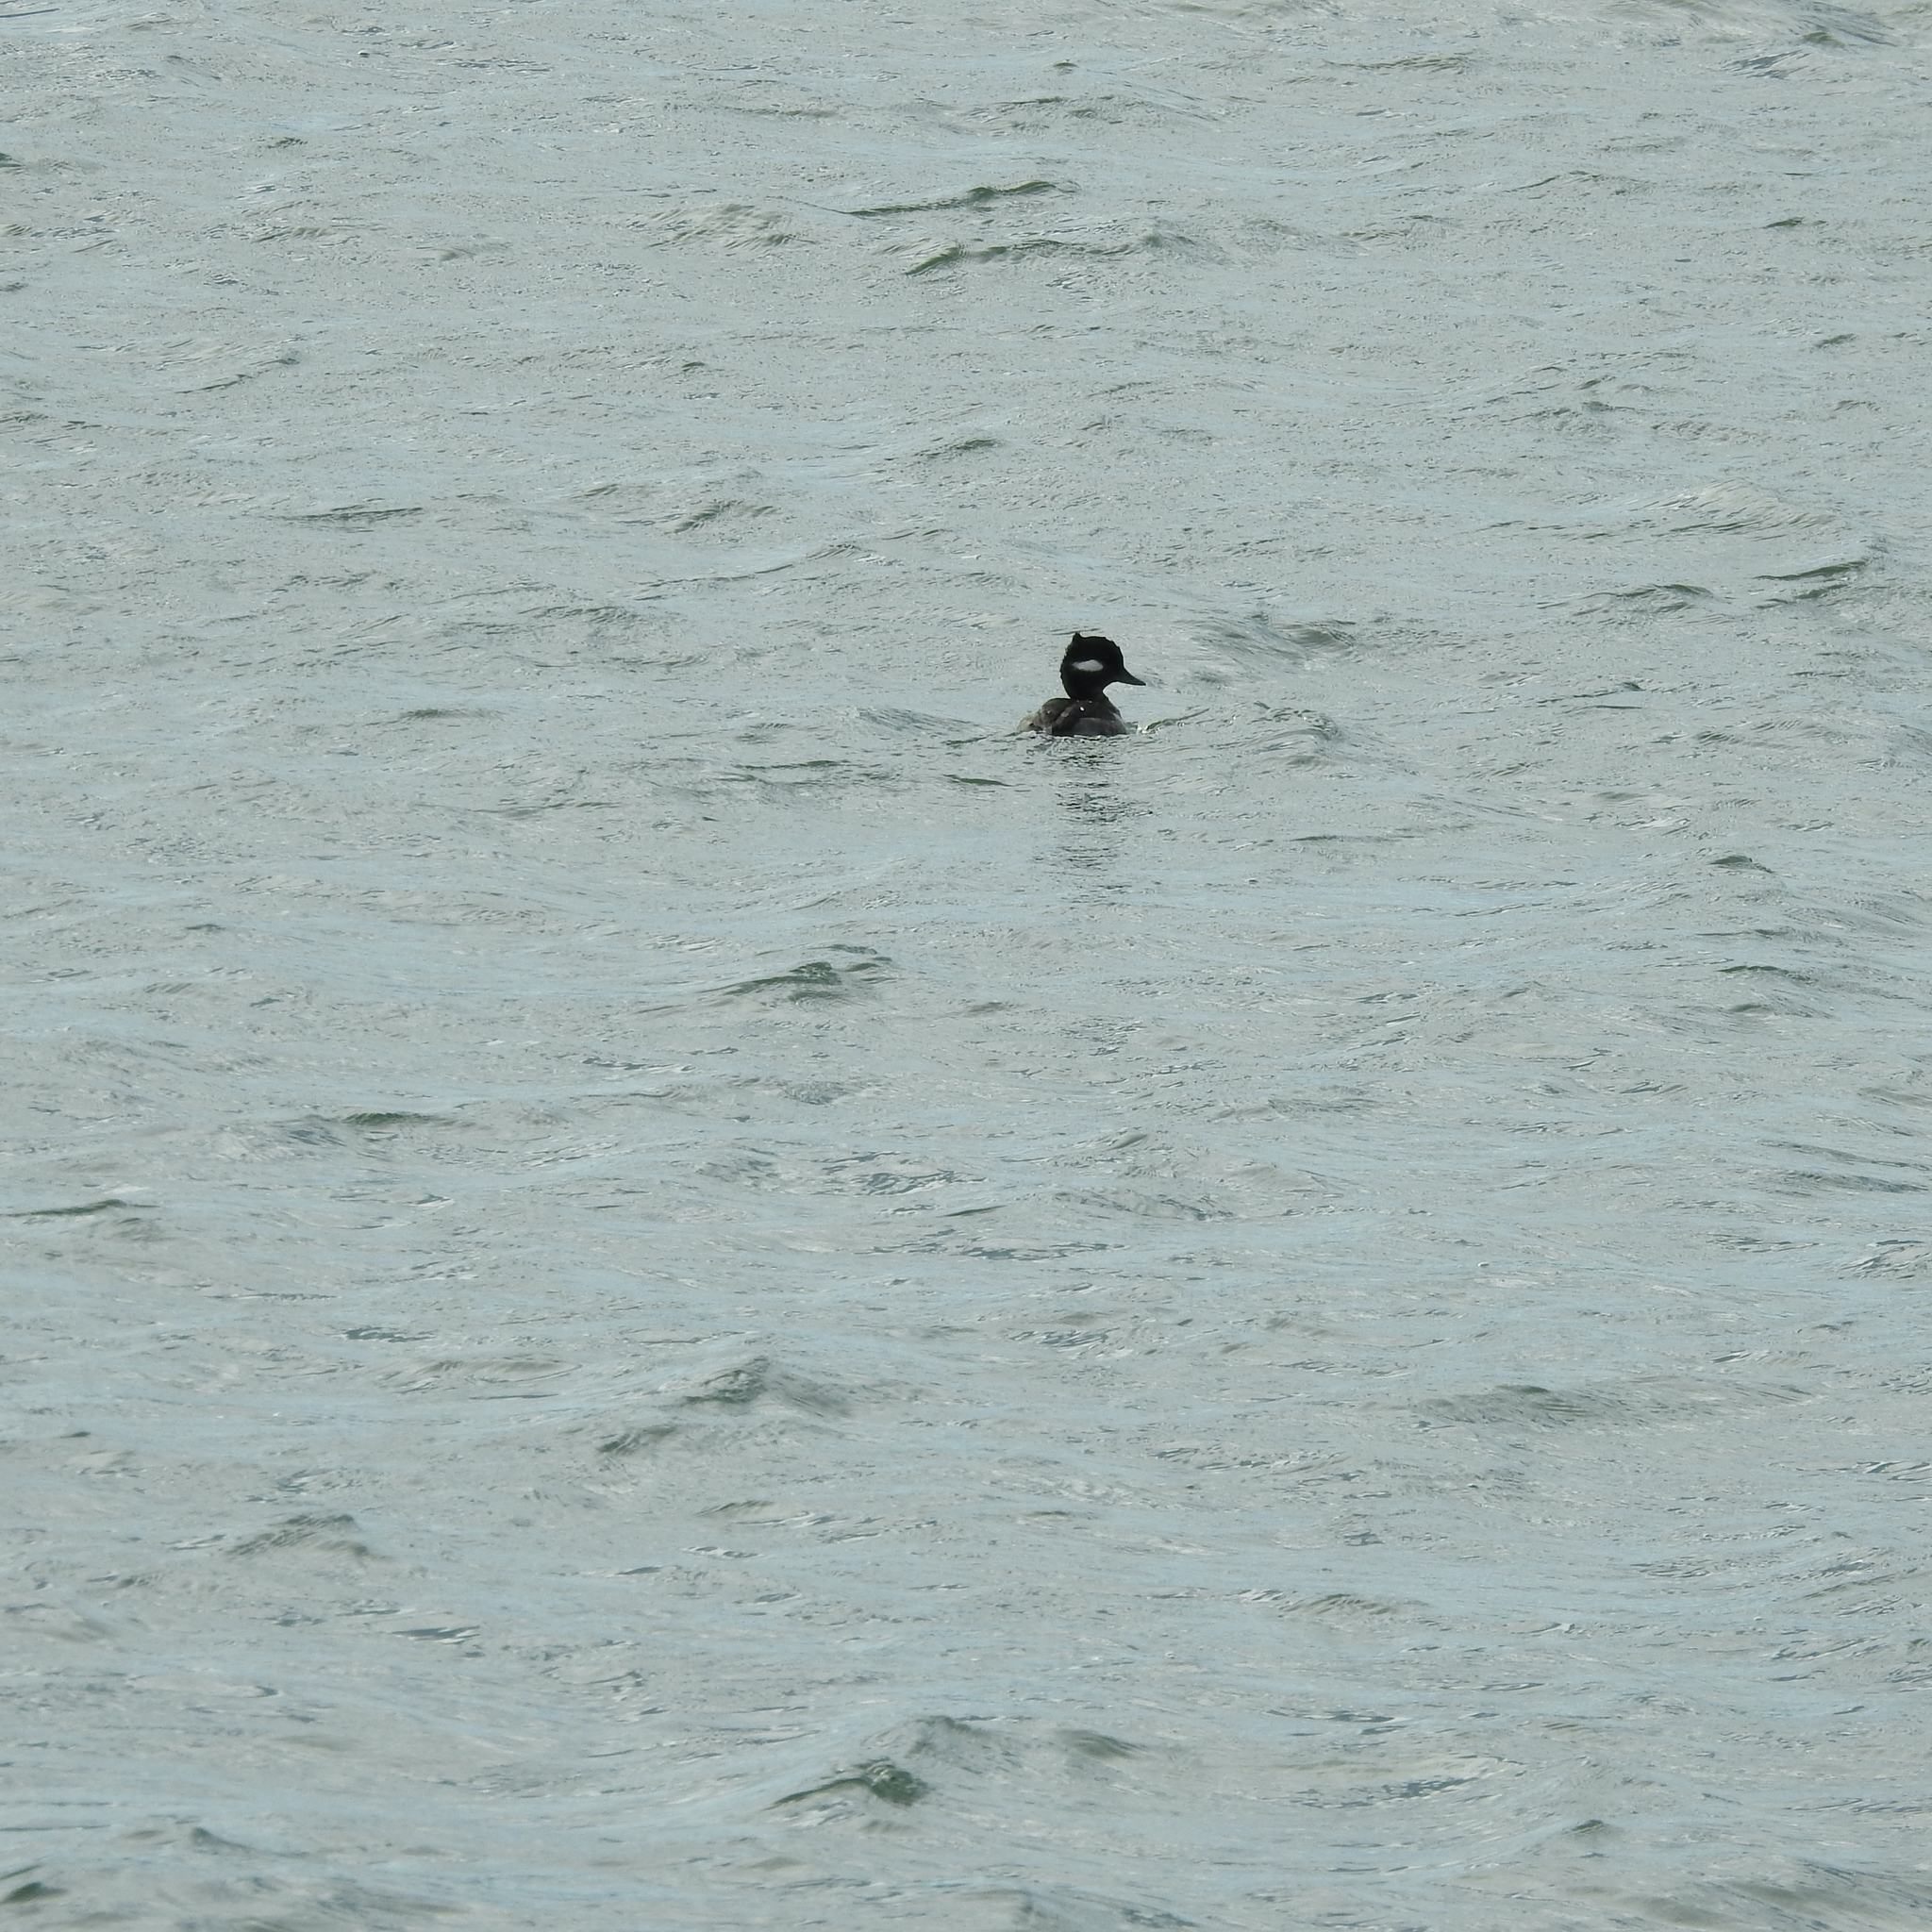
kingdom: Animalia
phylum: Chordata
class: Aves
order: Anseriformes
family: Anatidae
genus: Bucephala
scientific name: Bucephala albeola
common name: Bufflehead
